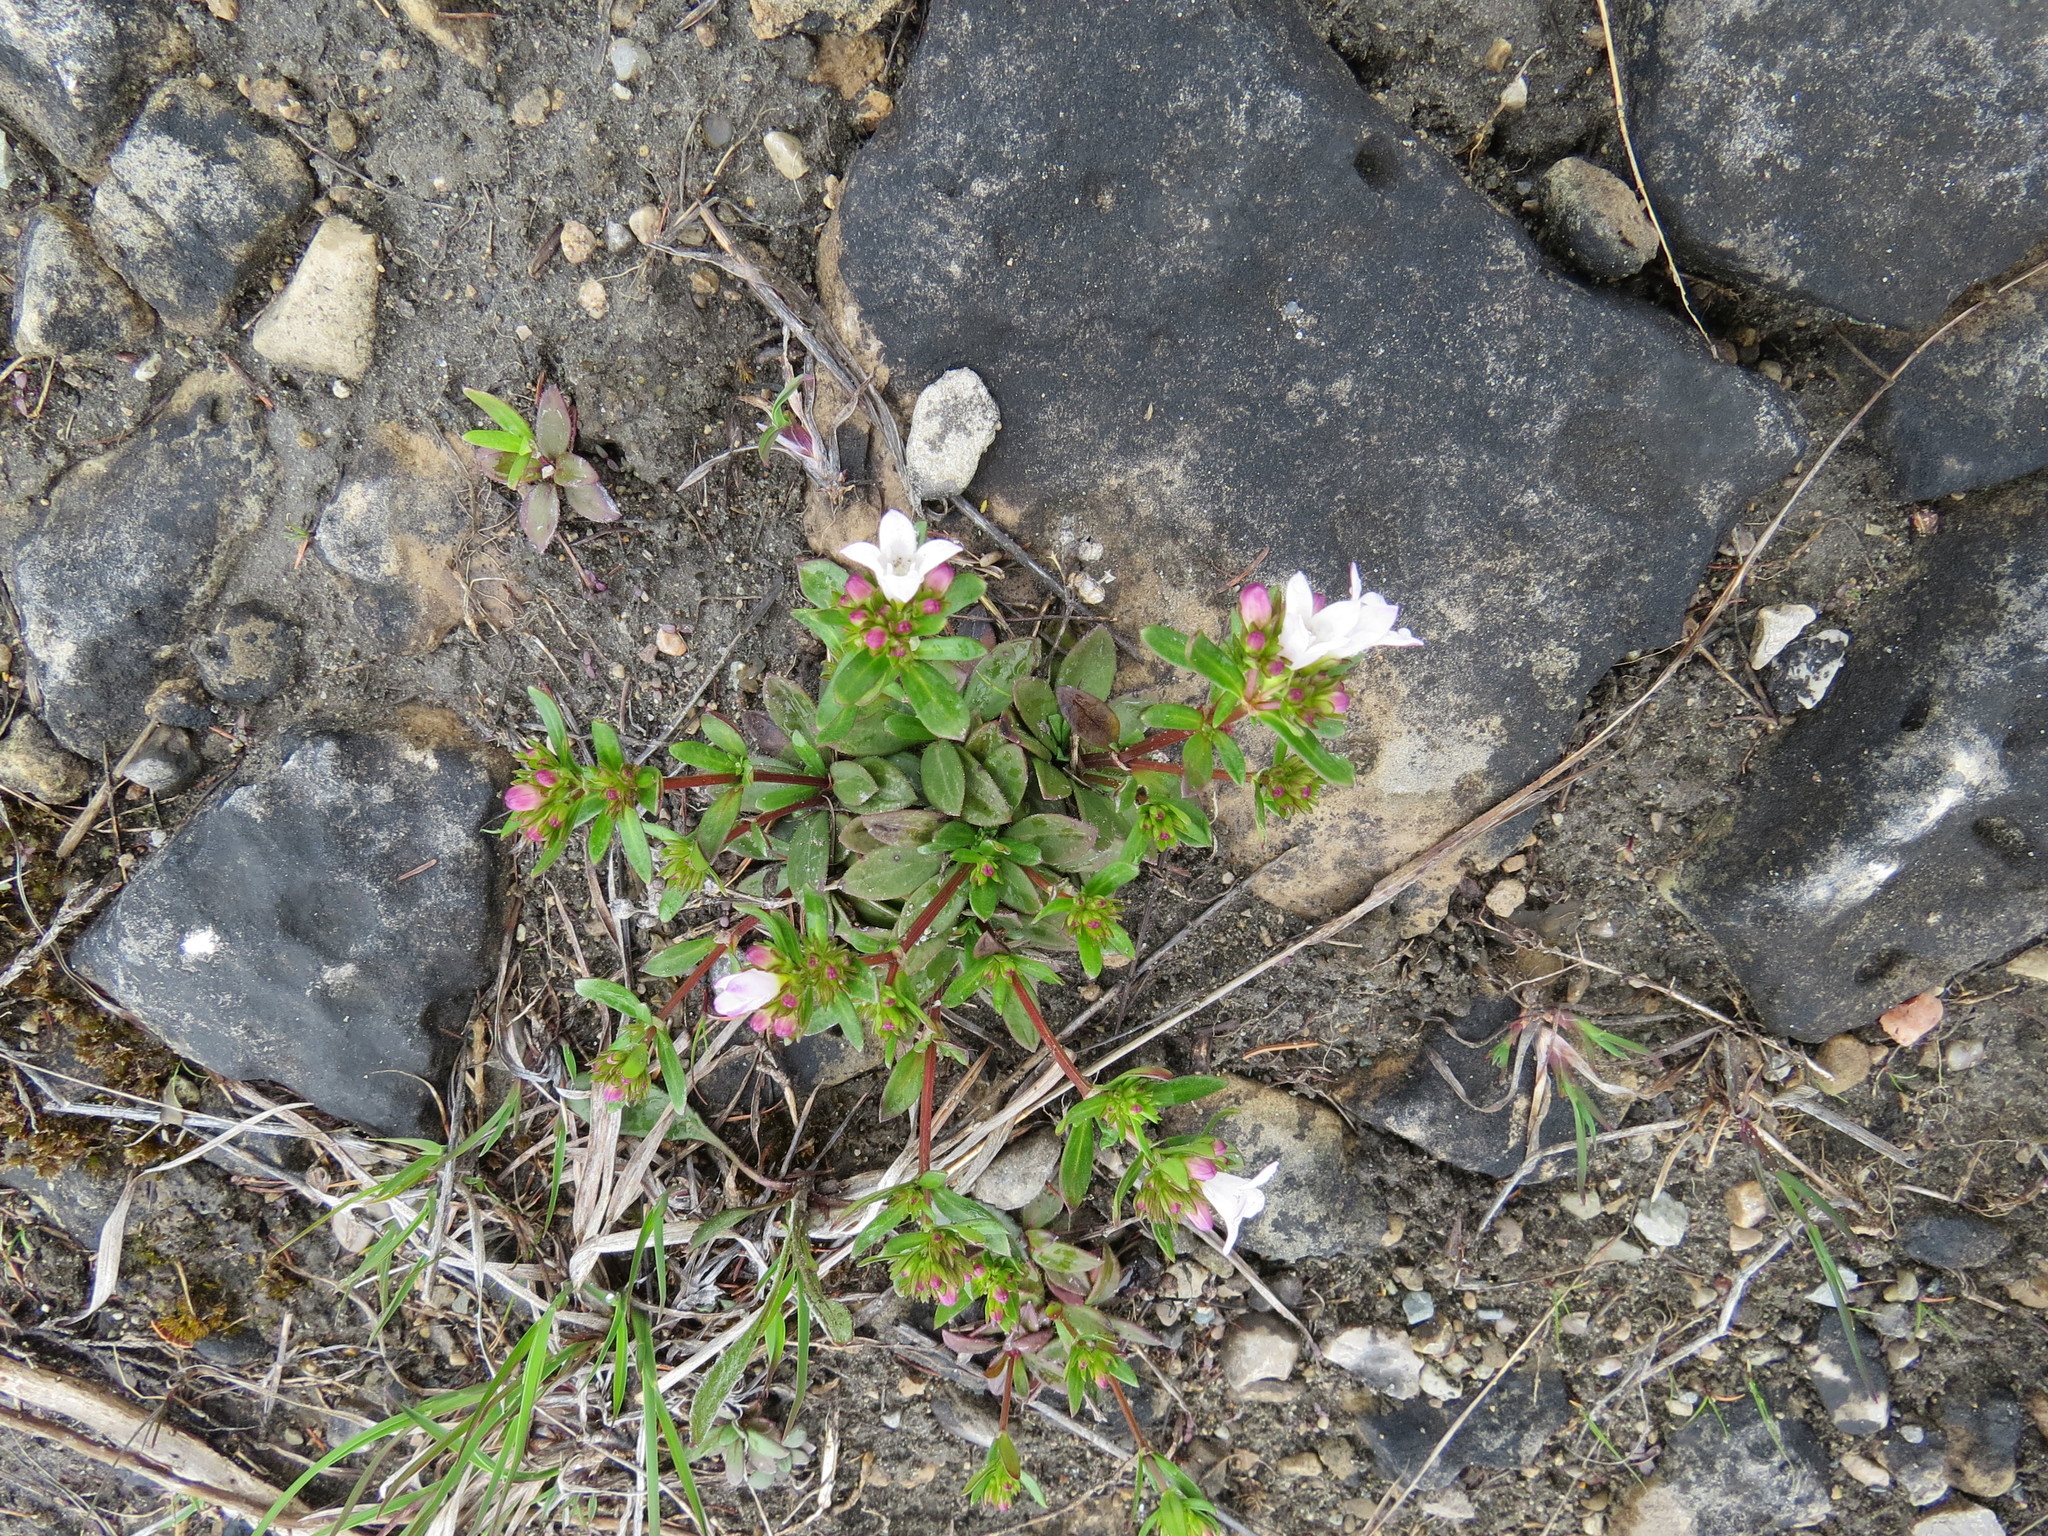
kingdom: Plantae
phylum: Tracheophyta
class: Magnoliopsida
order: Gentianales
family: Rubiaceae
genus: Houstonia
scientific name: Houstonia canadensis
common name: Fringed houstonia
